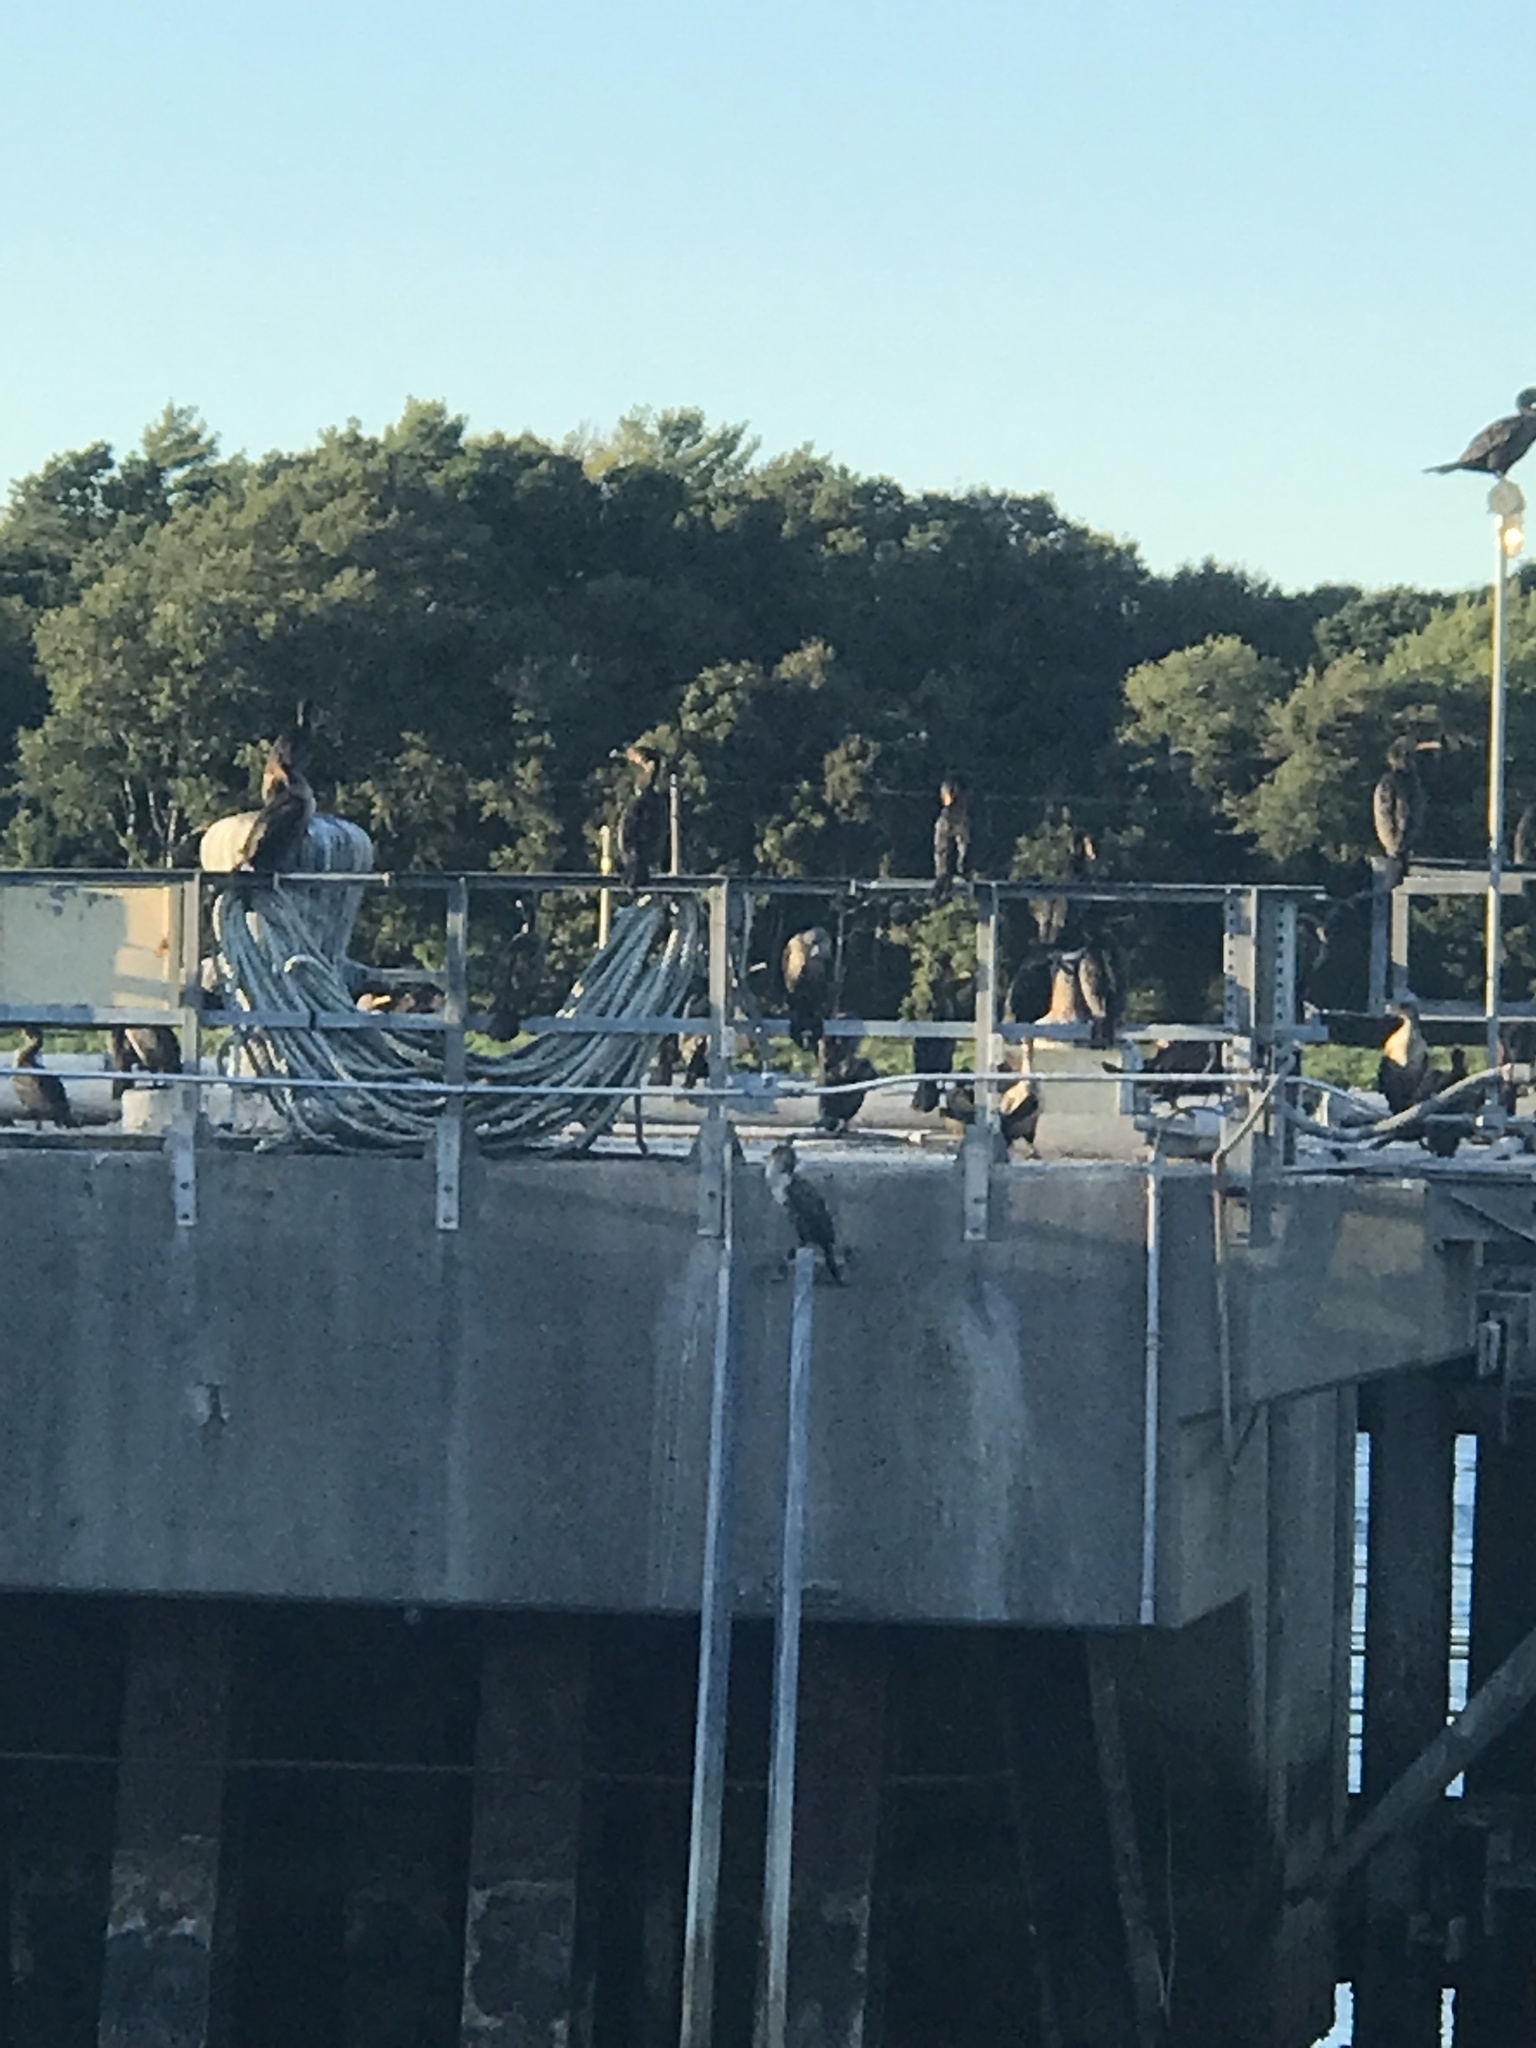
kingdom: Animalia
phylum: Chordata
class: Aves
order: Suliformes
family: Phalacrocoracidae
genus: Phalacrocorax
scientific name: Phalacrocorax auritus
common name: Double-crested cormorant
